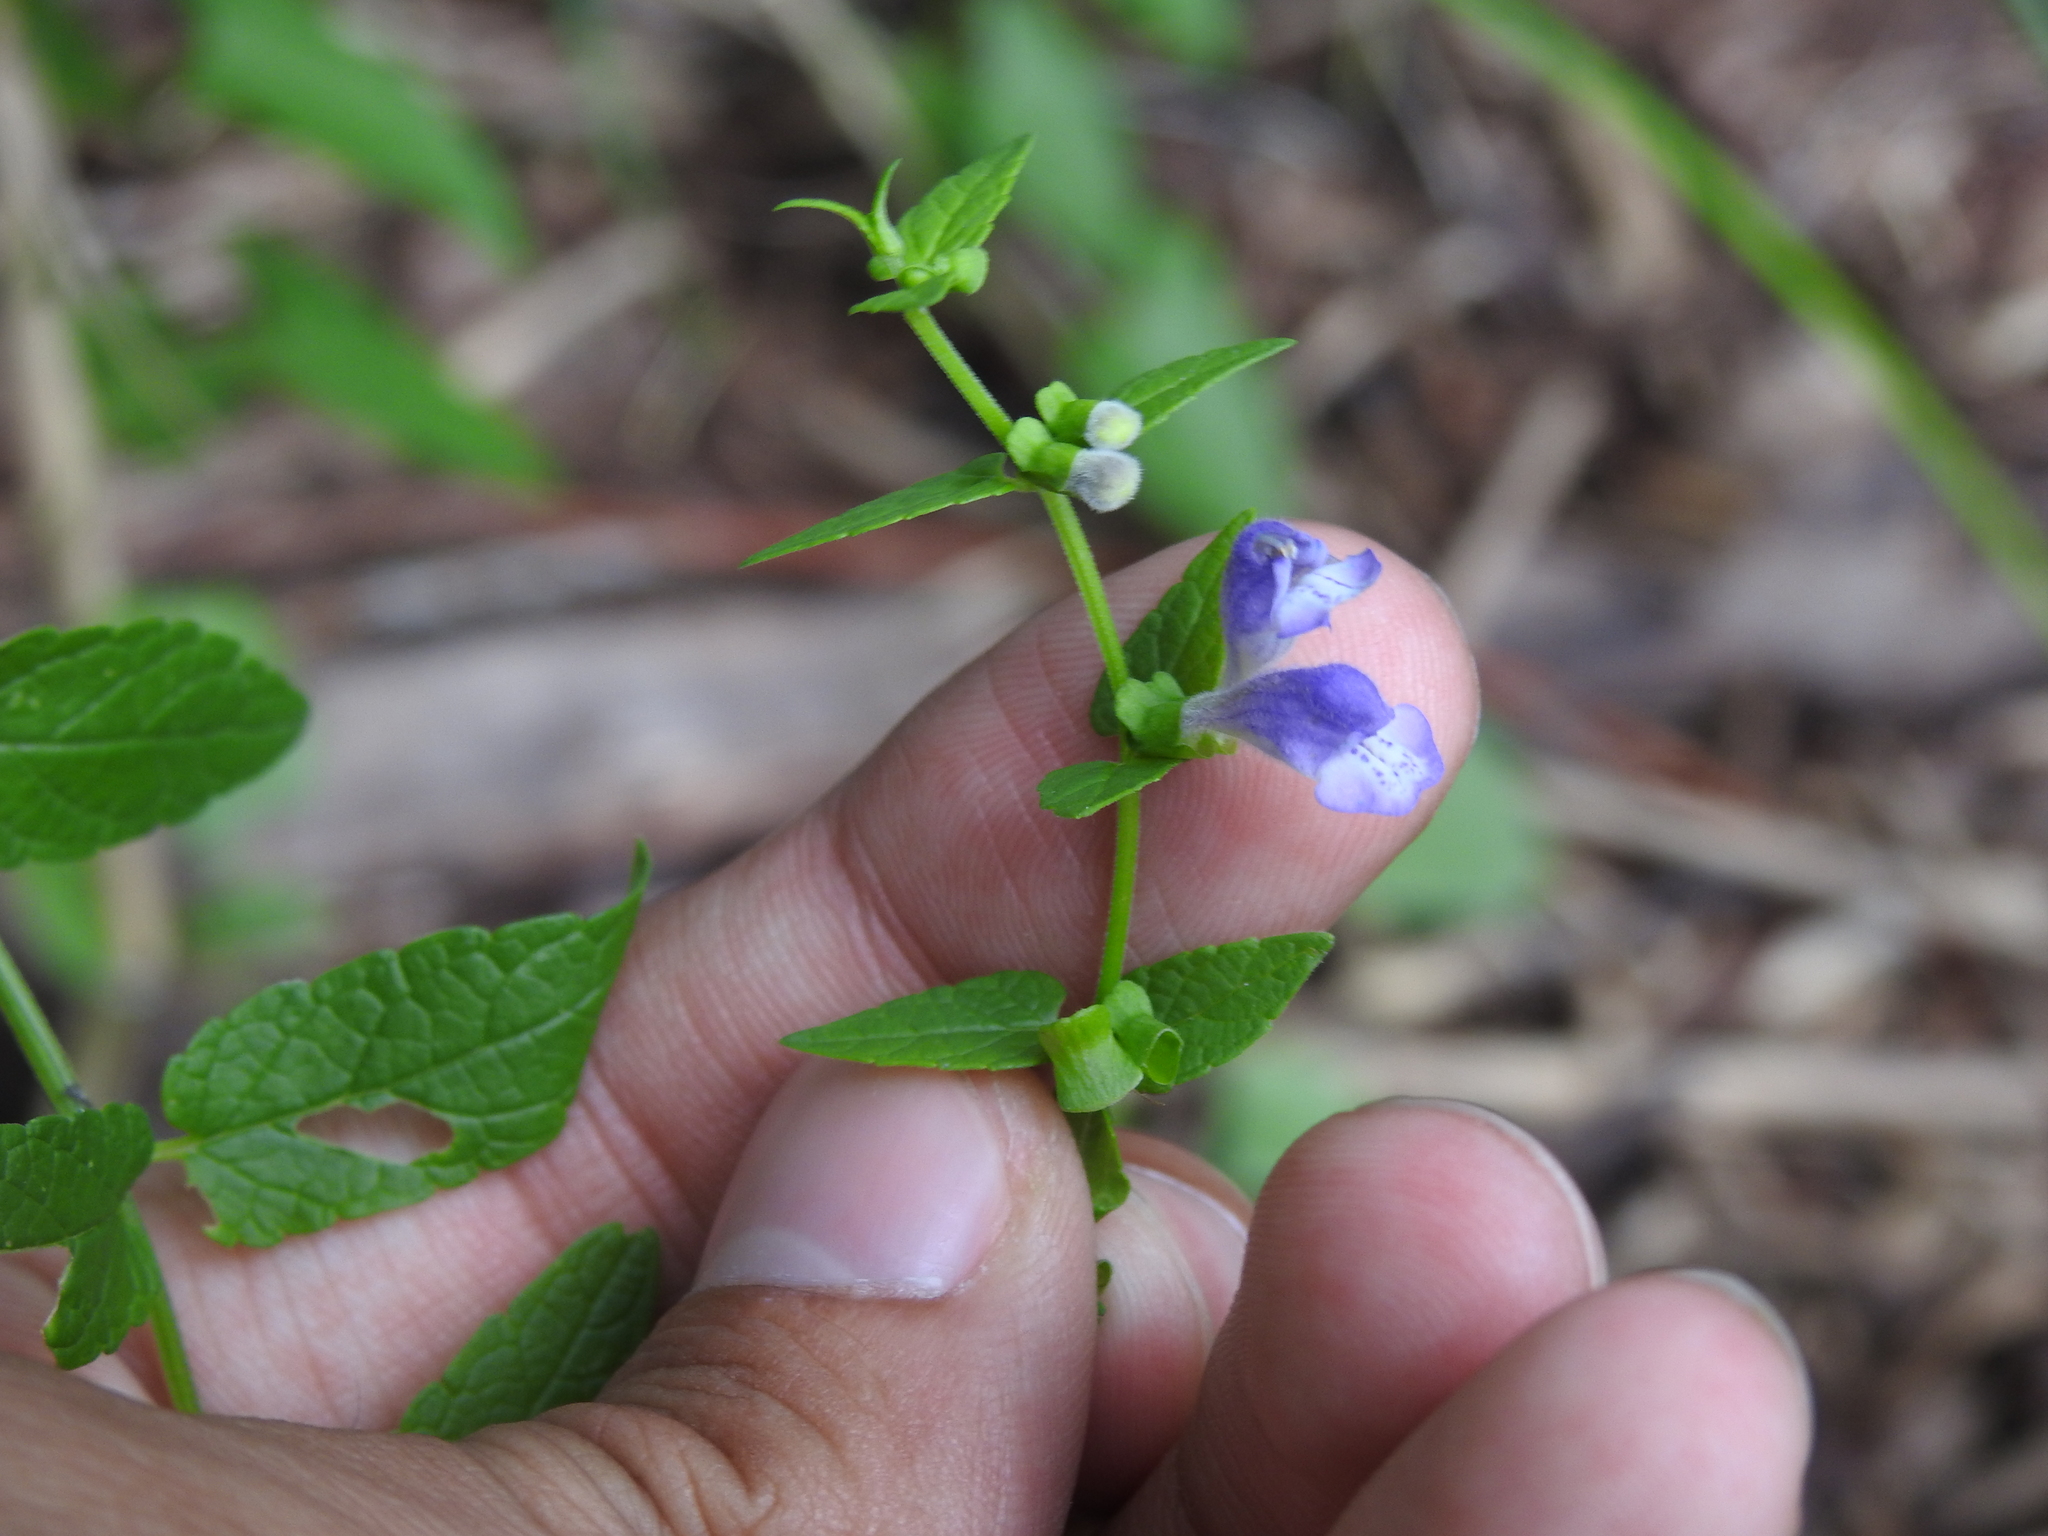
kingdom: Plantae
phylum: Tracheophyta
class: Magnoliopsida
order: Lamiales
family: Lamiaceae
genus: Scutellaria
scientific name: Scutellaria galericulata
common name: Skullcap
